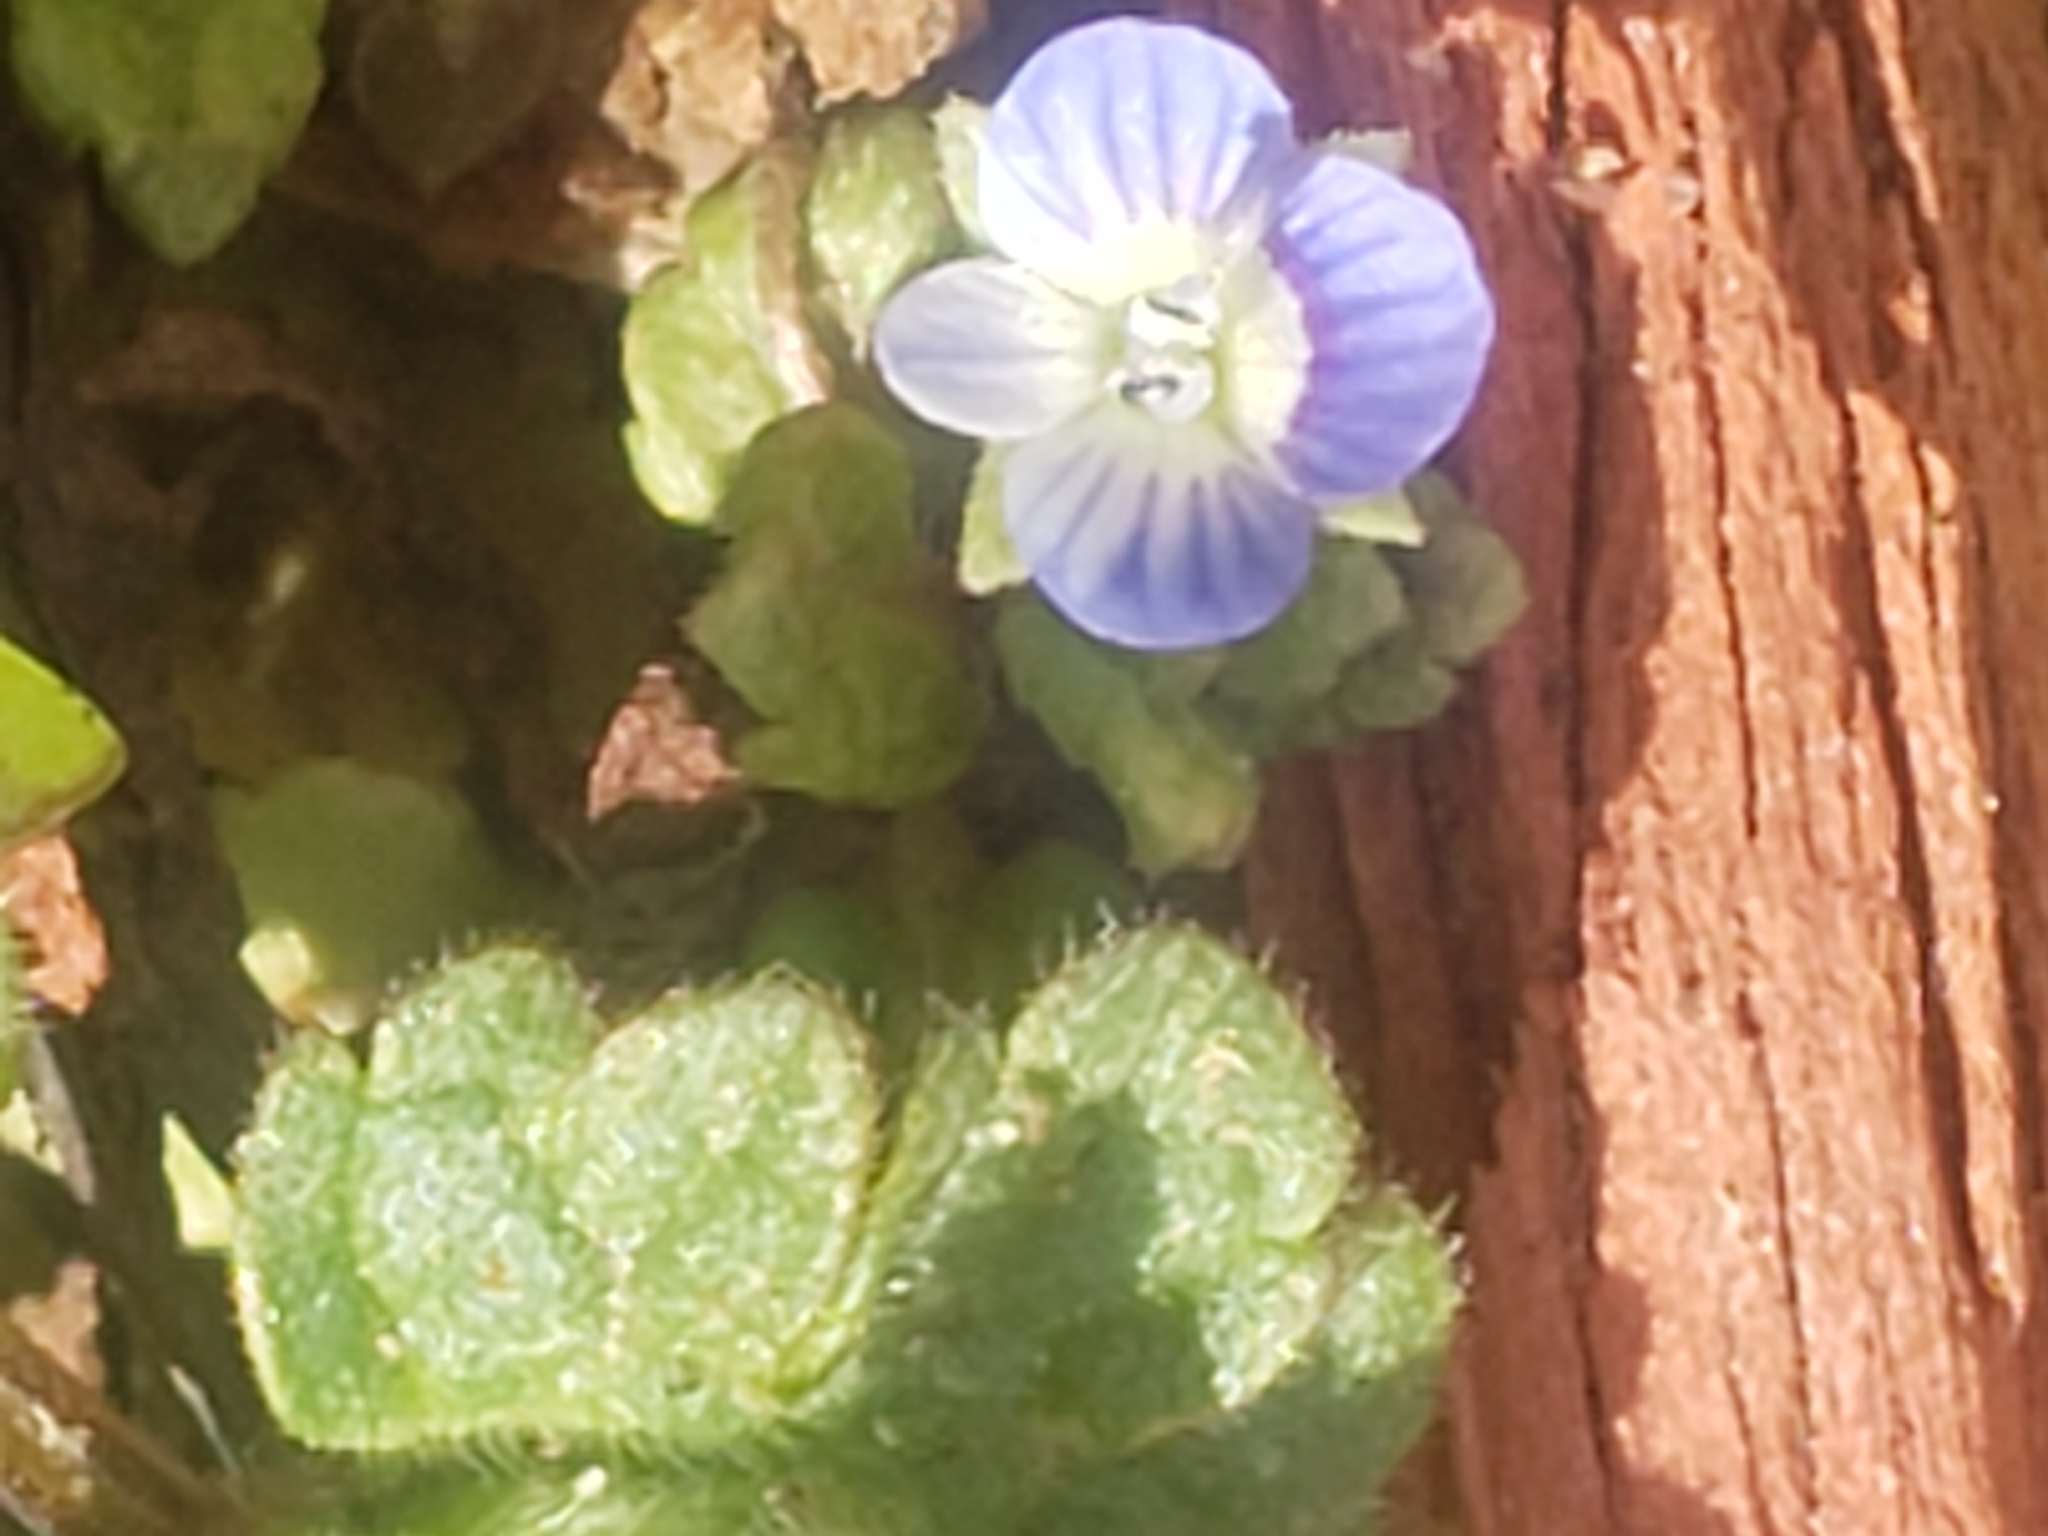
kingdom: Plantae
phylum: Tracheophyta
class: Magnoliopsida
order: Lamiales
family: Plantaginaceae
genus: Veronica
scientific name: Veronica polita
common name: Grey field-speedwell
